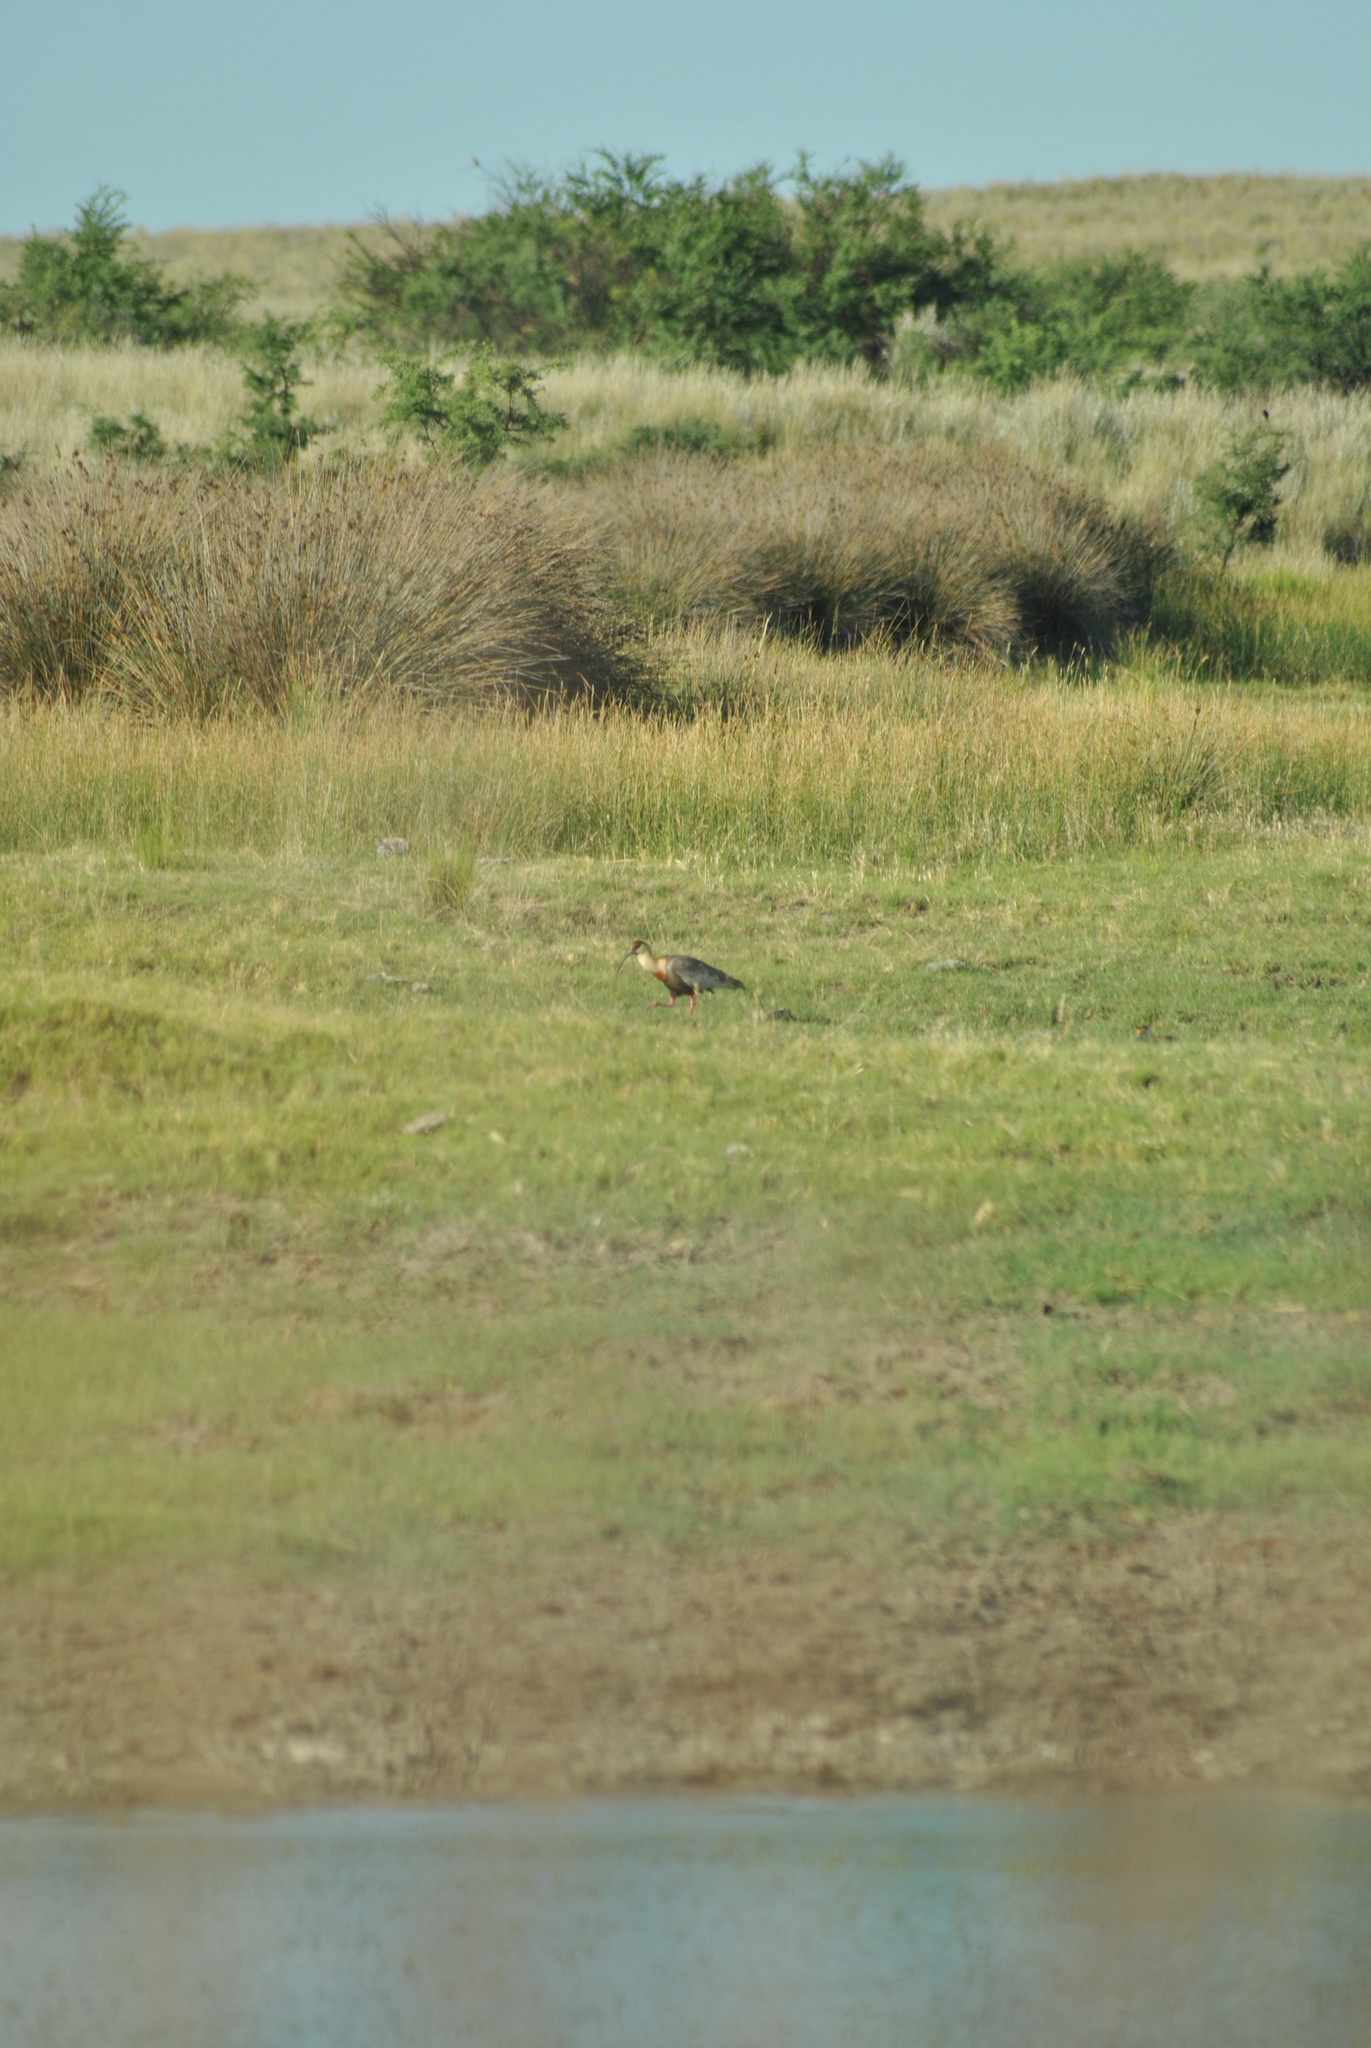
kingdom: Animalia
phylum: Chordata
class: Aves
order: Pelecaniformes
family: Threskiornithidae
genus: Theristicus
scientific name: Theristicus melanopis
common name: Black-faced ibis
